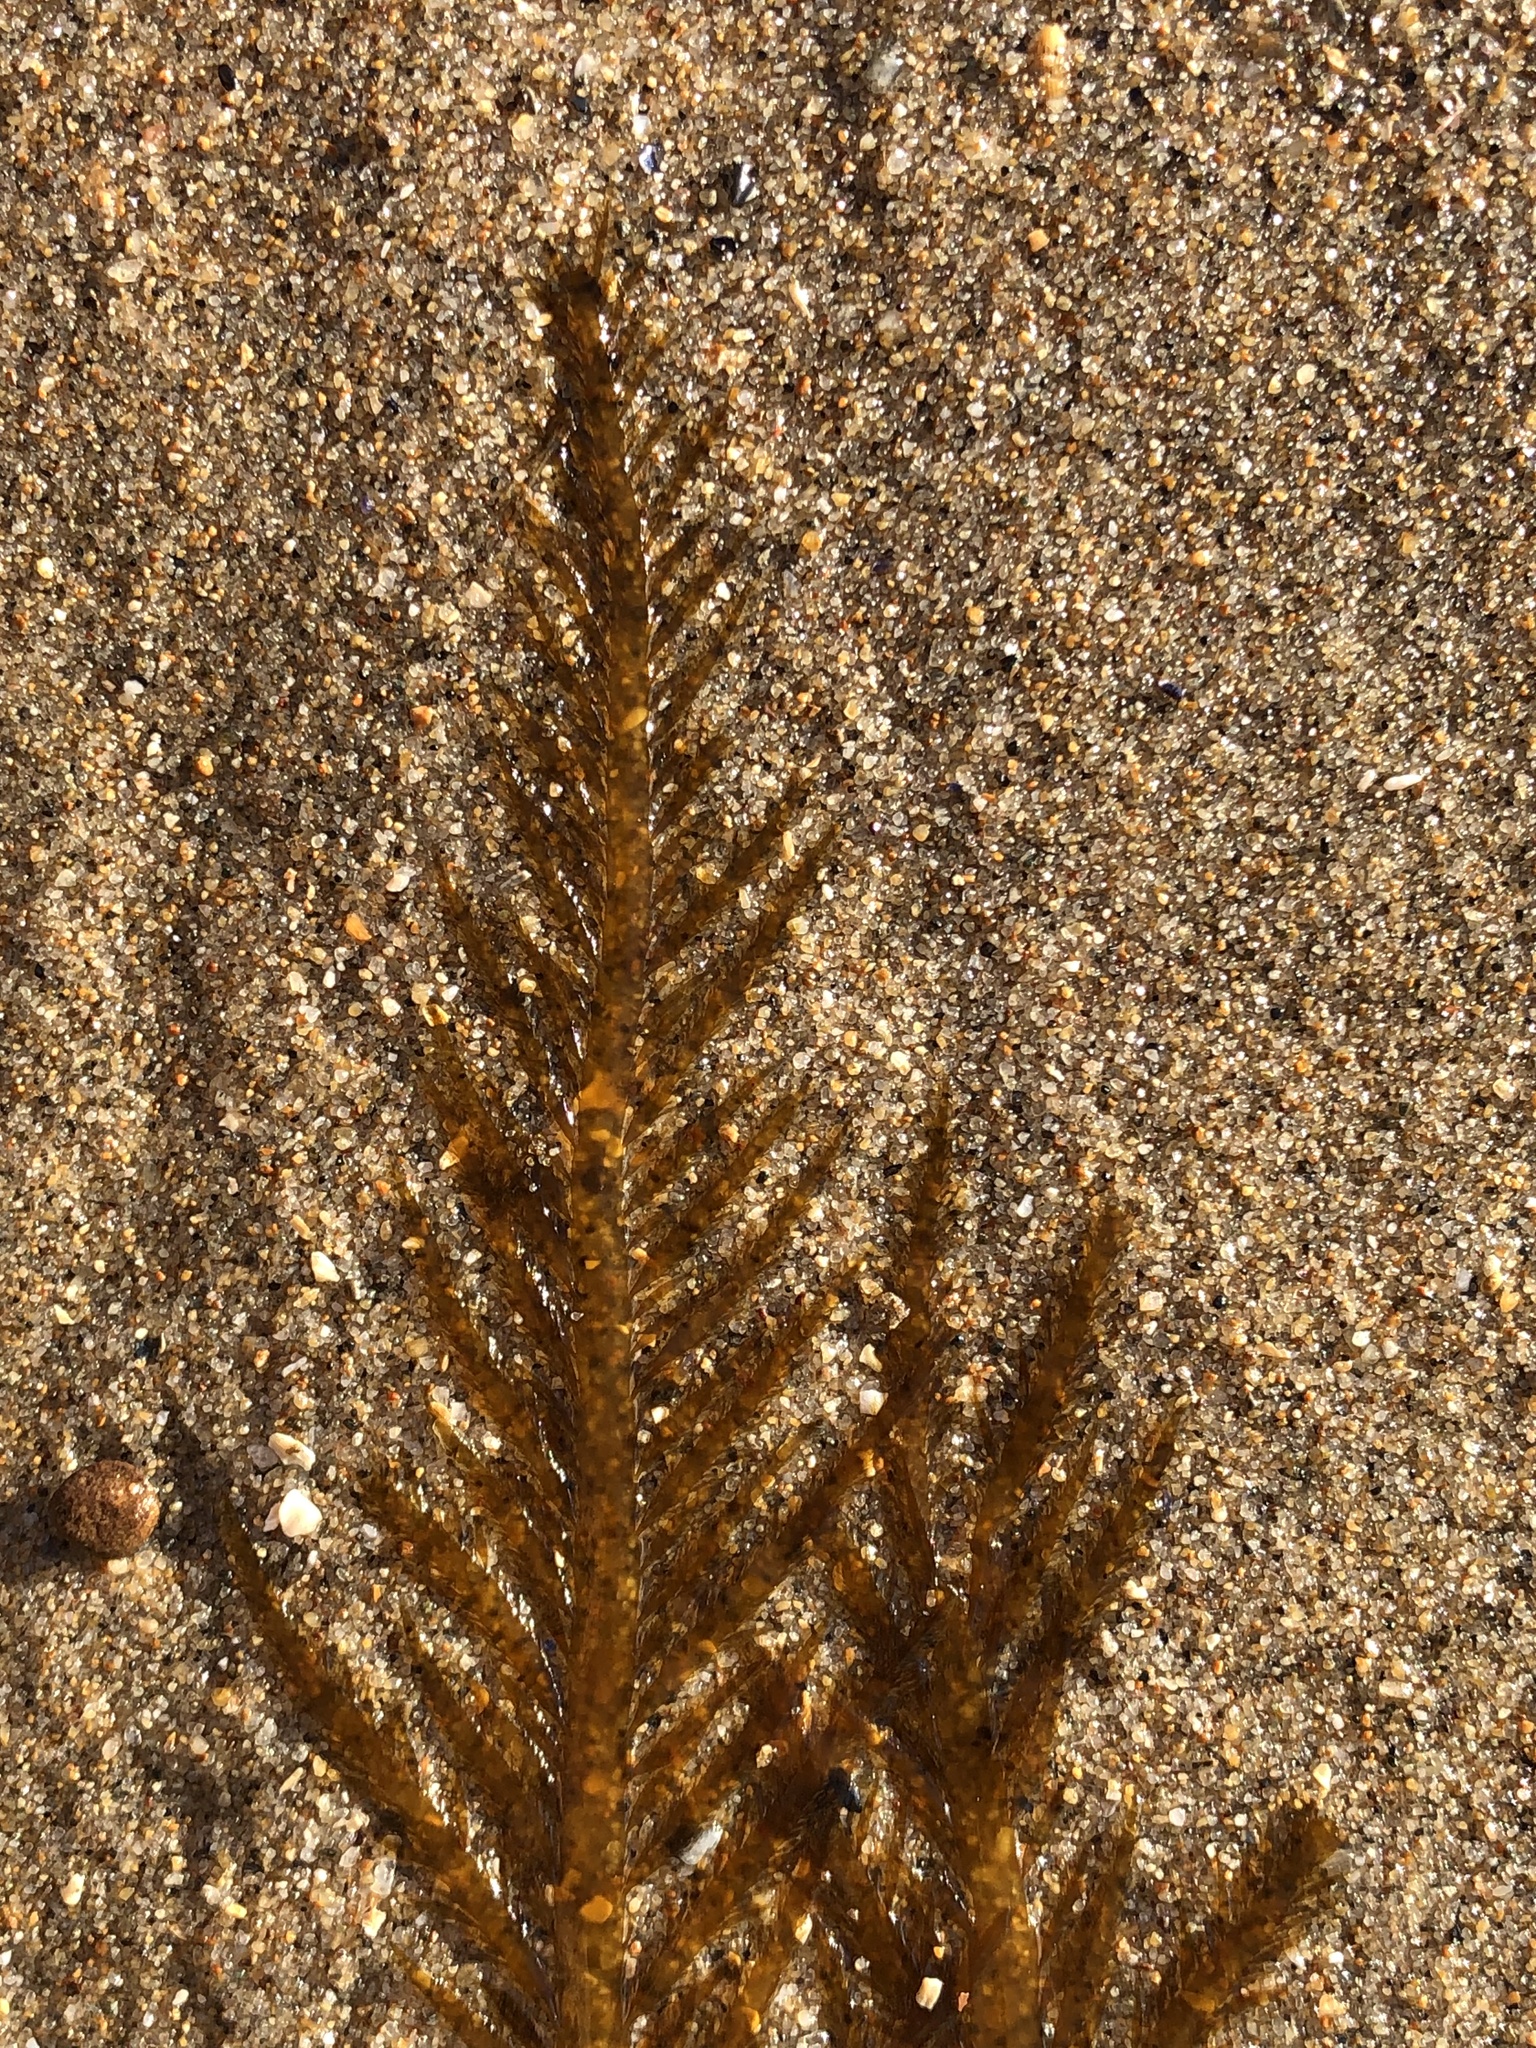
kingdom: Chromista
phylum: Ochrophyta
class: Phaeophyceae
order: Desmarestiales
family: Desmarestiaceae
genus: Desmarestia
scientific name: Desmarestia ligulata
